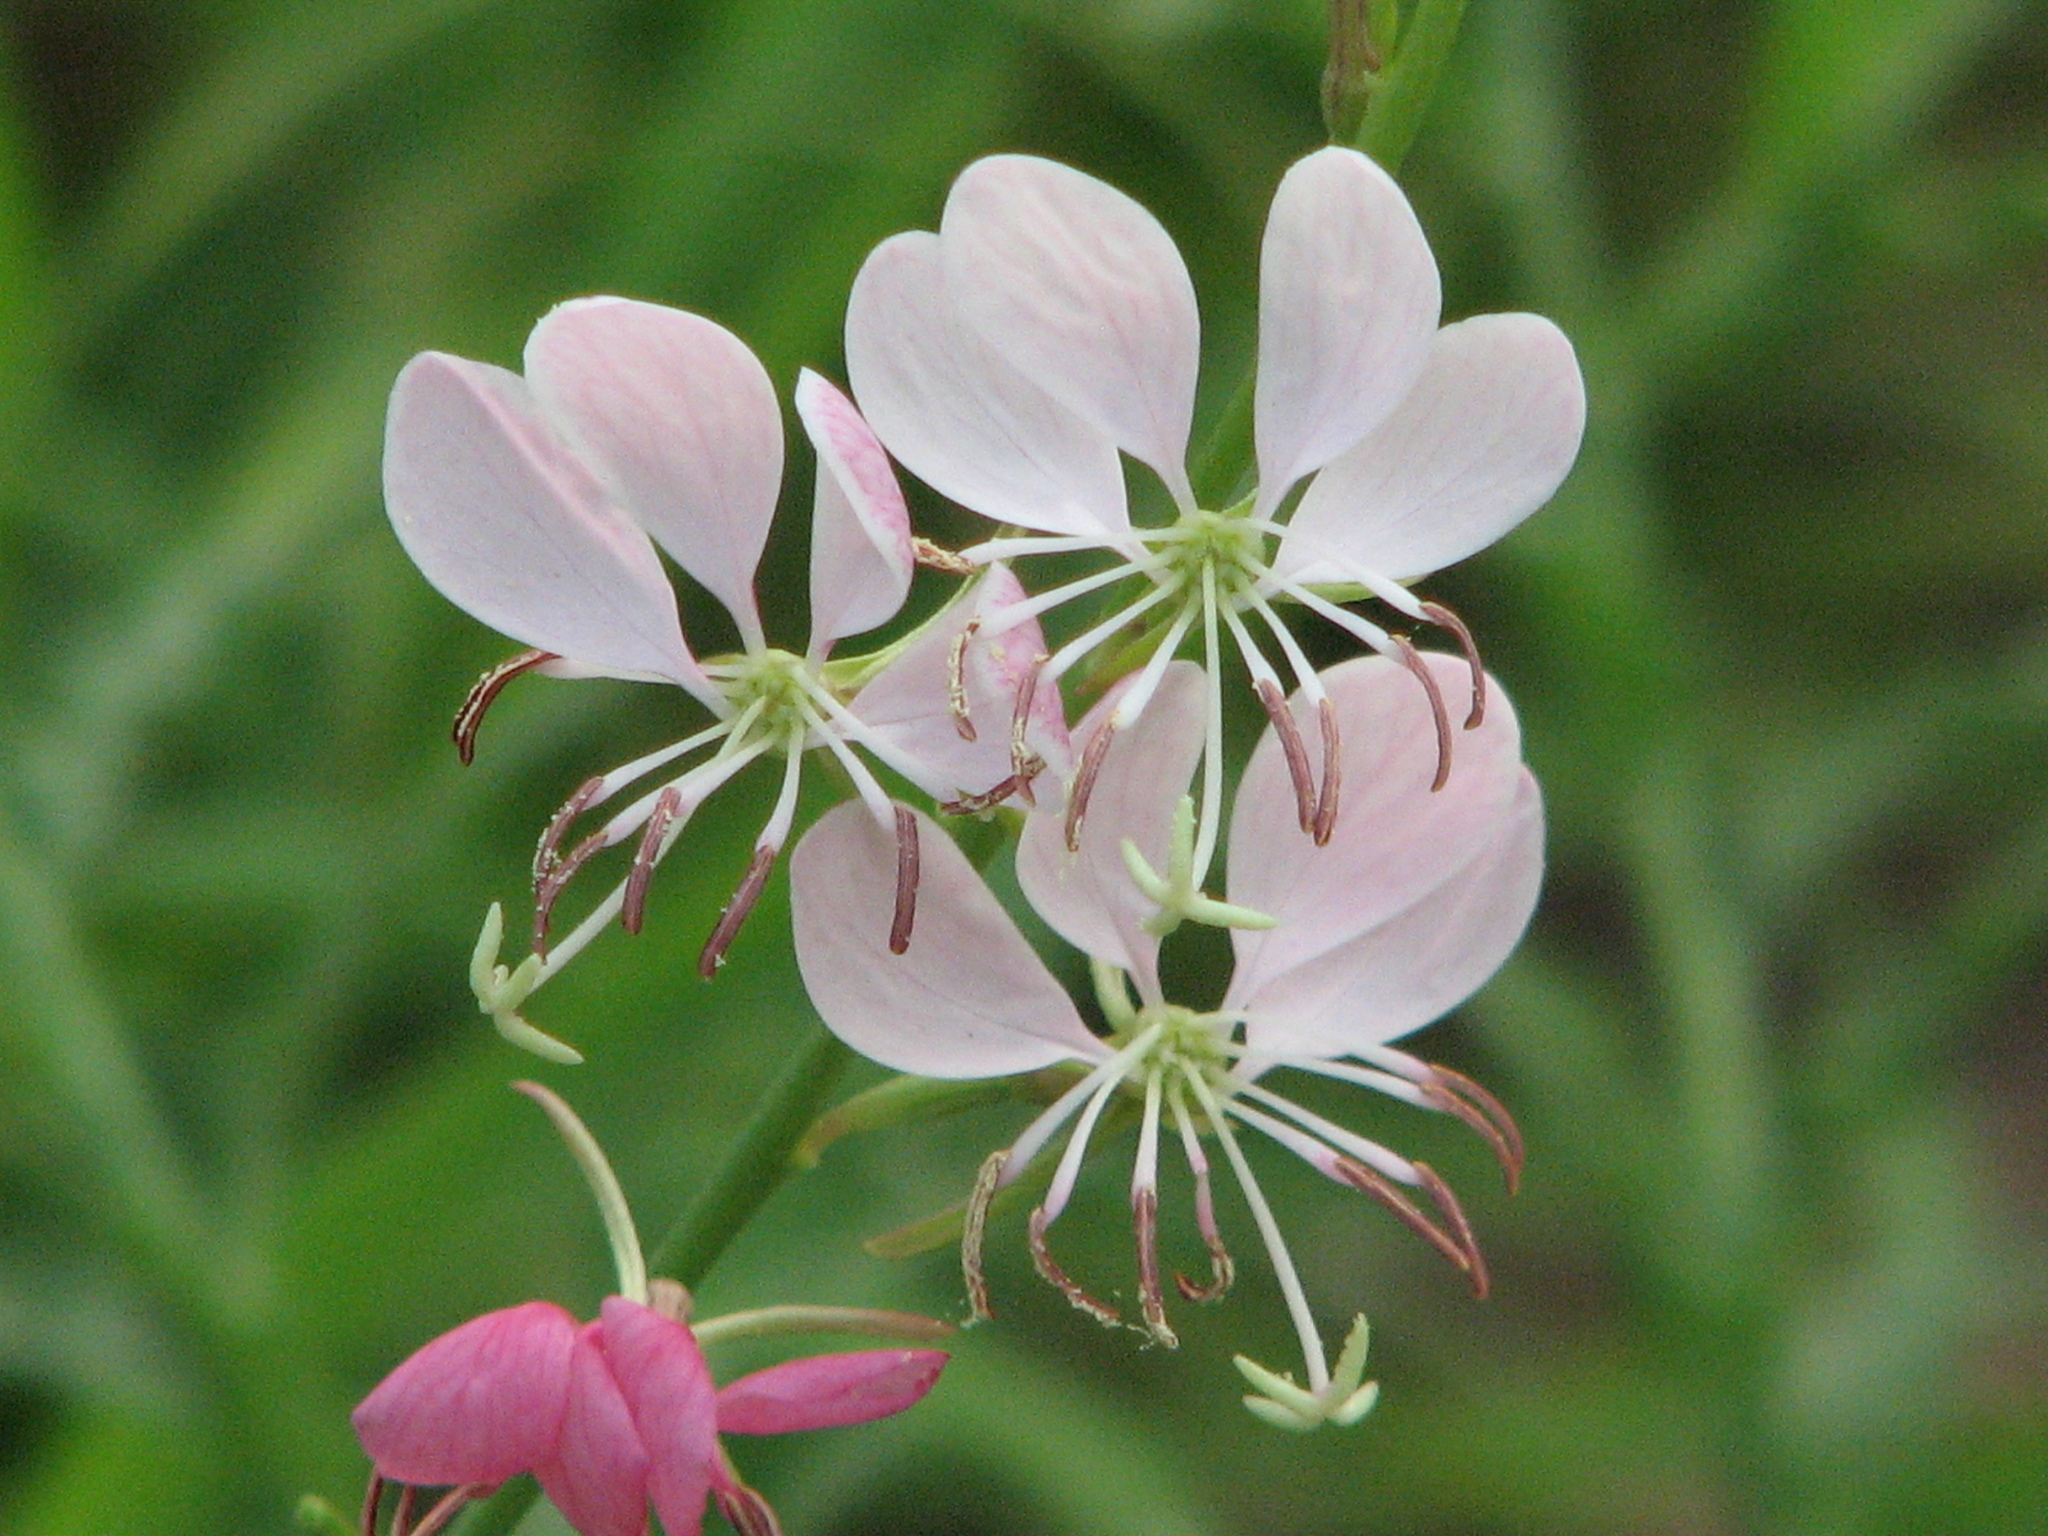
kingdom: Plantae
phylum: Tracheophyta
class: Magnoliopsida
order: Myrtales
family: Onagraceae
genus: Oenothera
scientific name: Oenothera hispida
